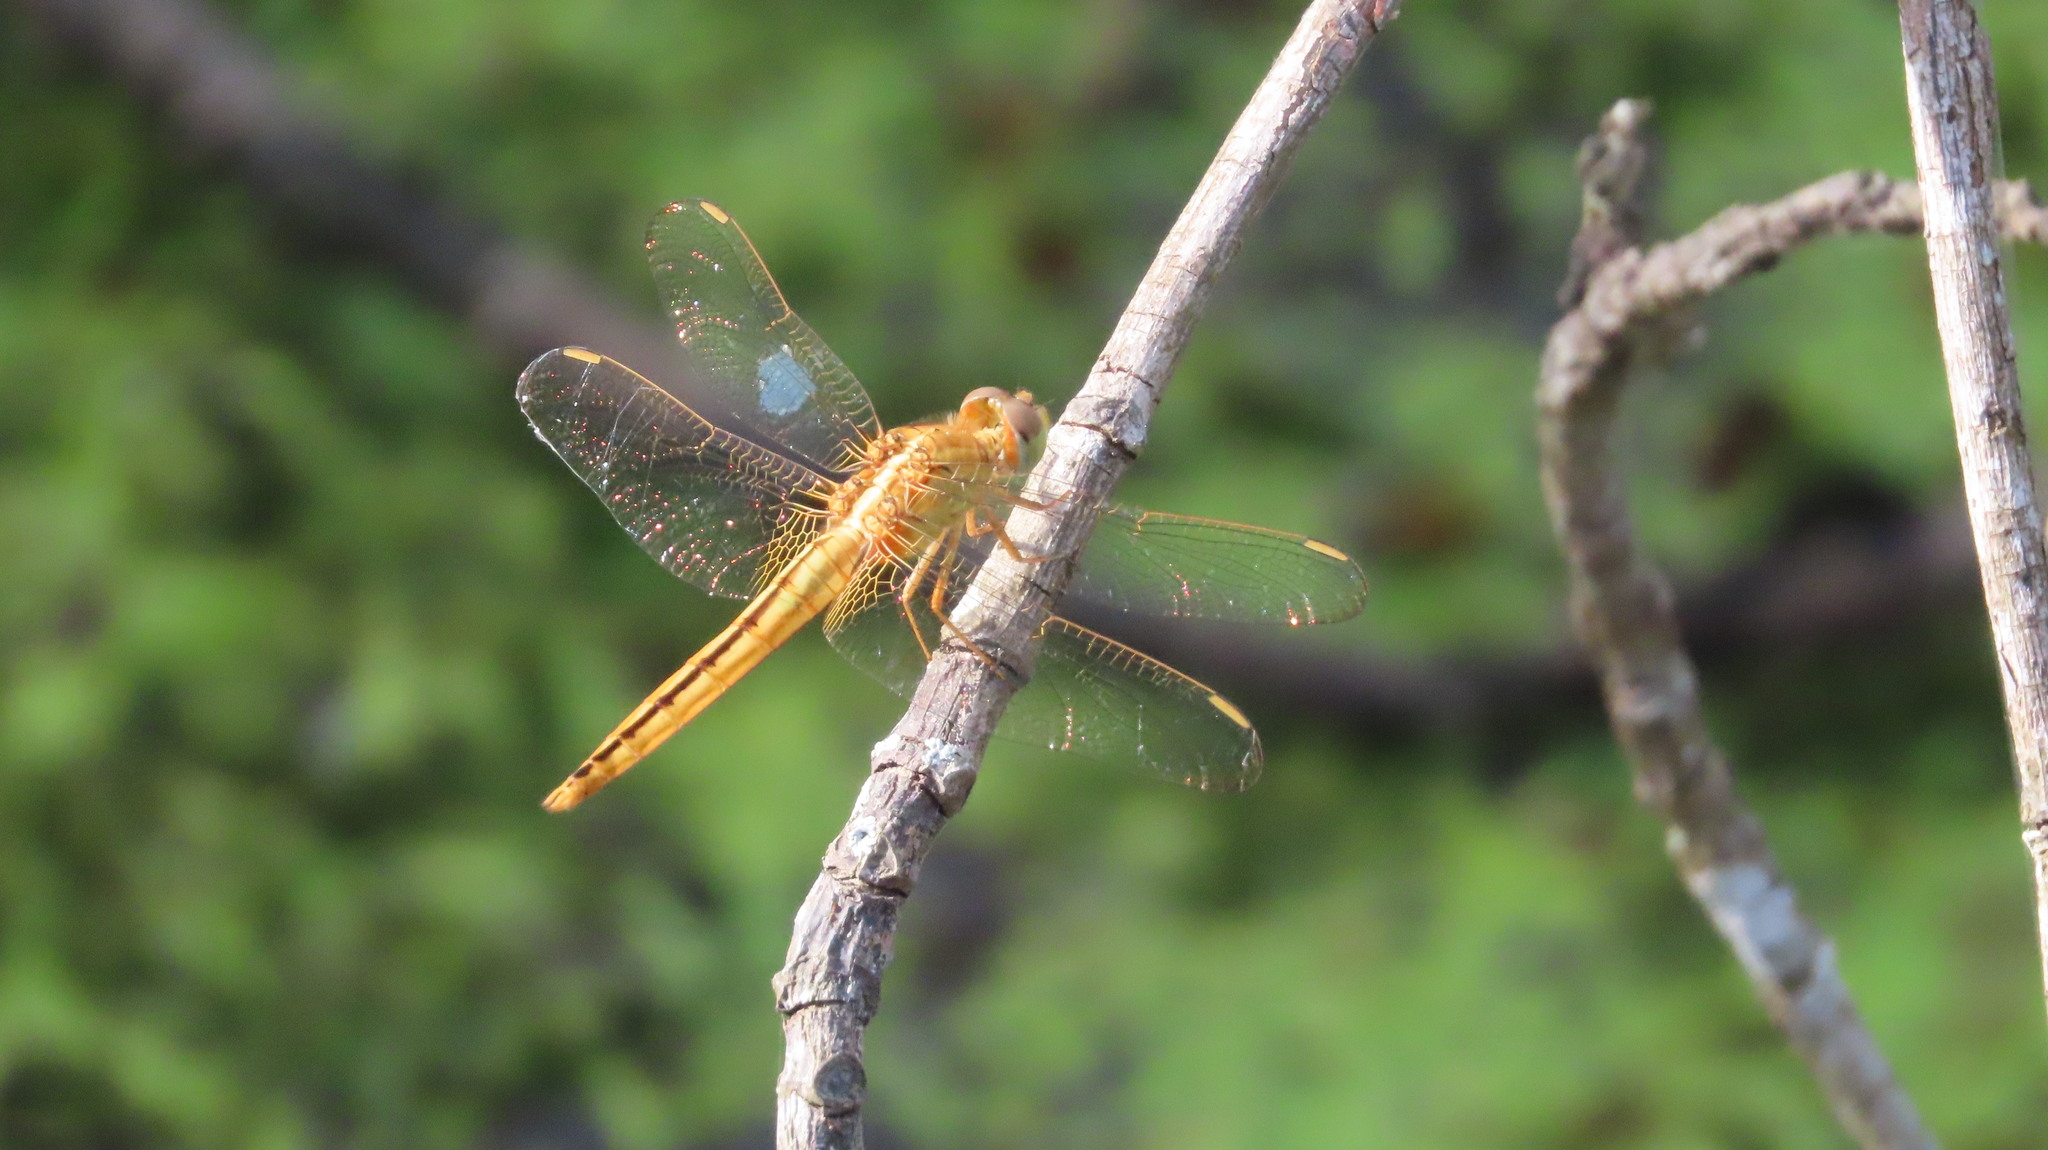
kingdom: Animalia
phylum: Arthropoda
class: Insecta
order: Odonata
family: Libellulidae
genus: Crocothemis
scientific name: Crocothemis servilia
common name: Scarlet skimmer
